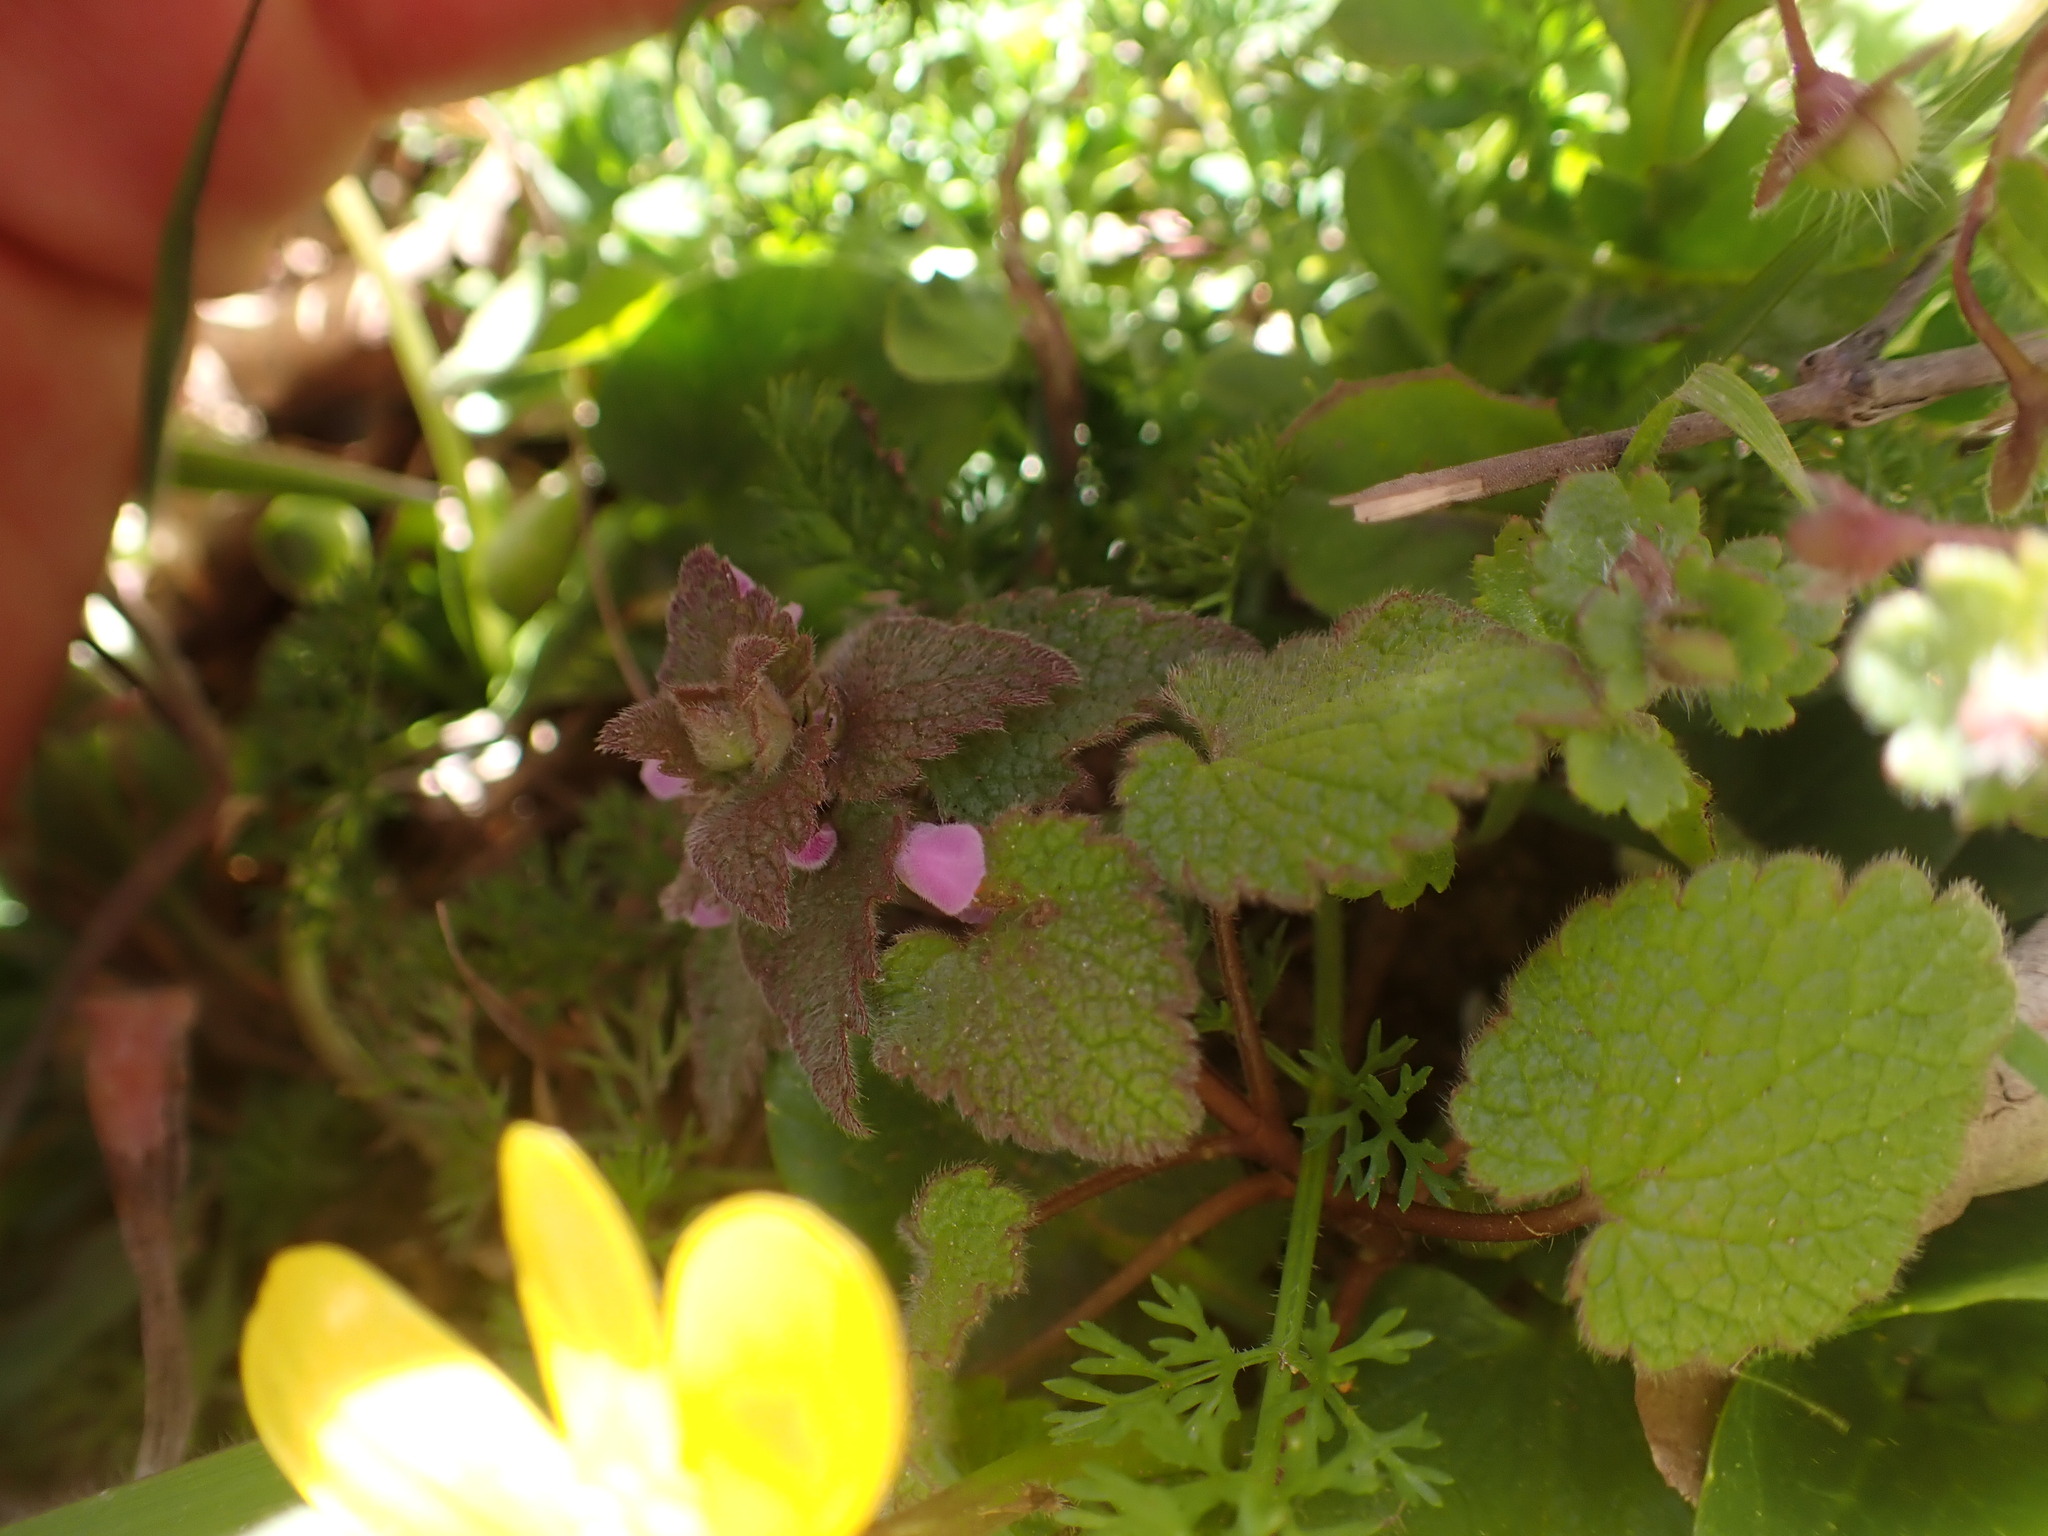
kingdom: Plantae
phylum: Tracheophyta
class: Magnoliopsida
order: Lamiales
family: Lamiaceae
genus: Lamium
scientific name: Lamium purpureum
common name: Red dead-nettle
